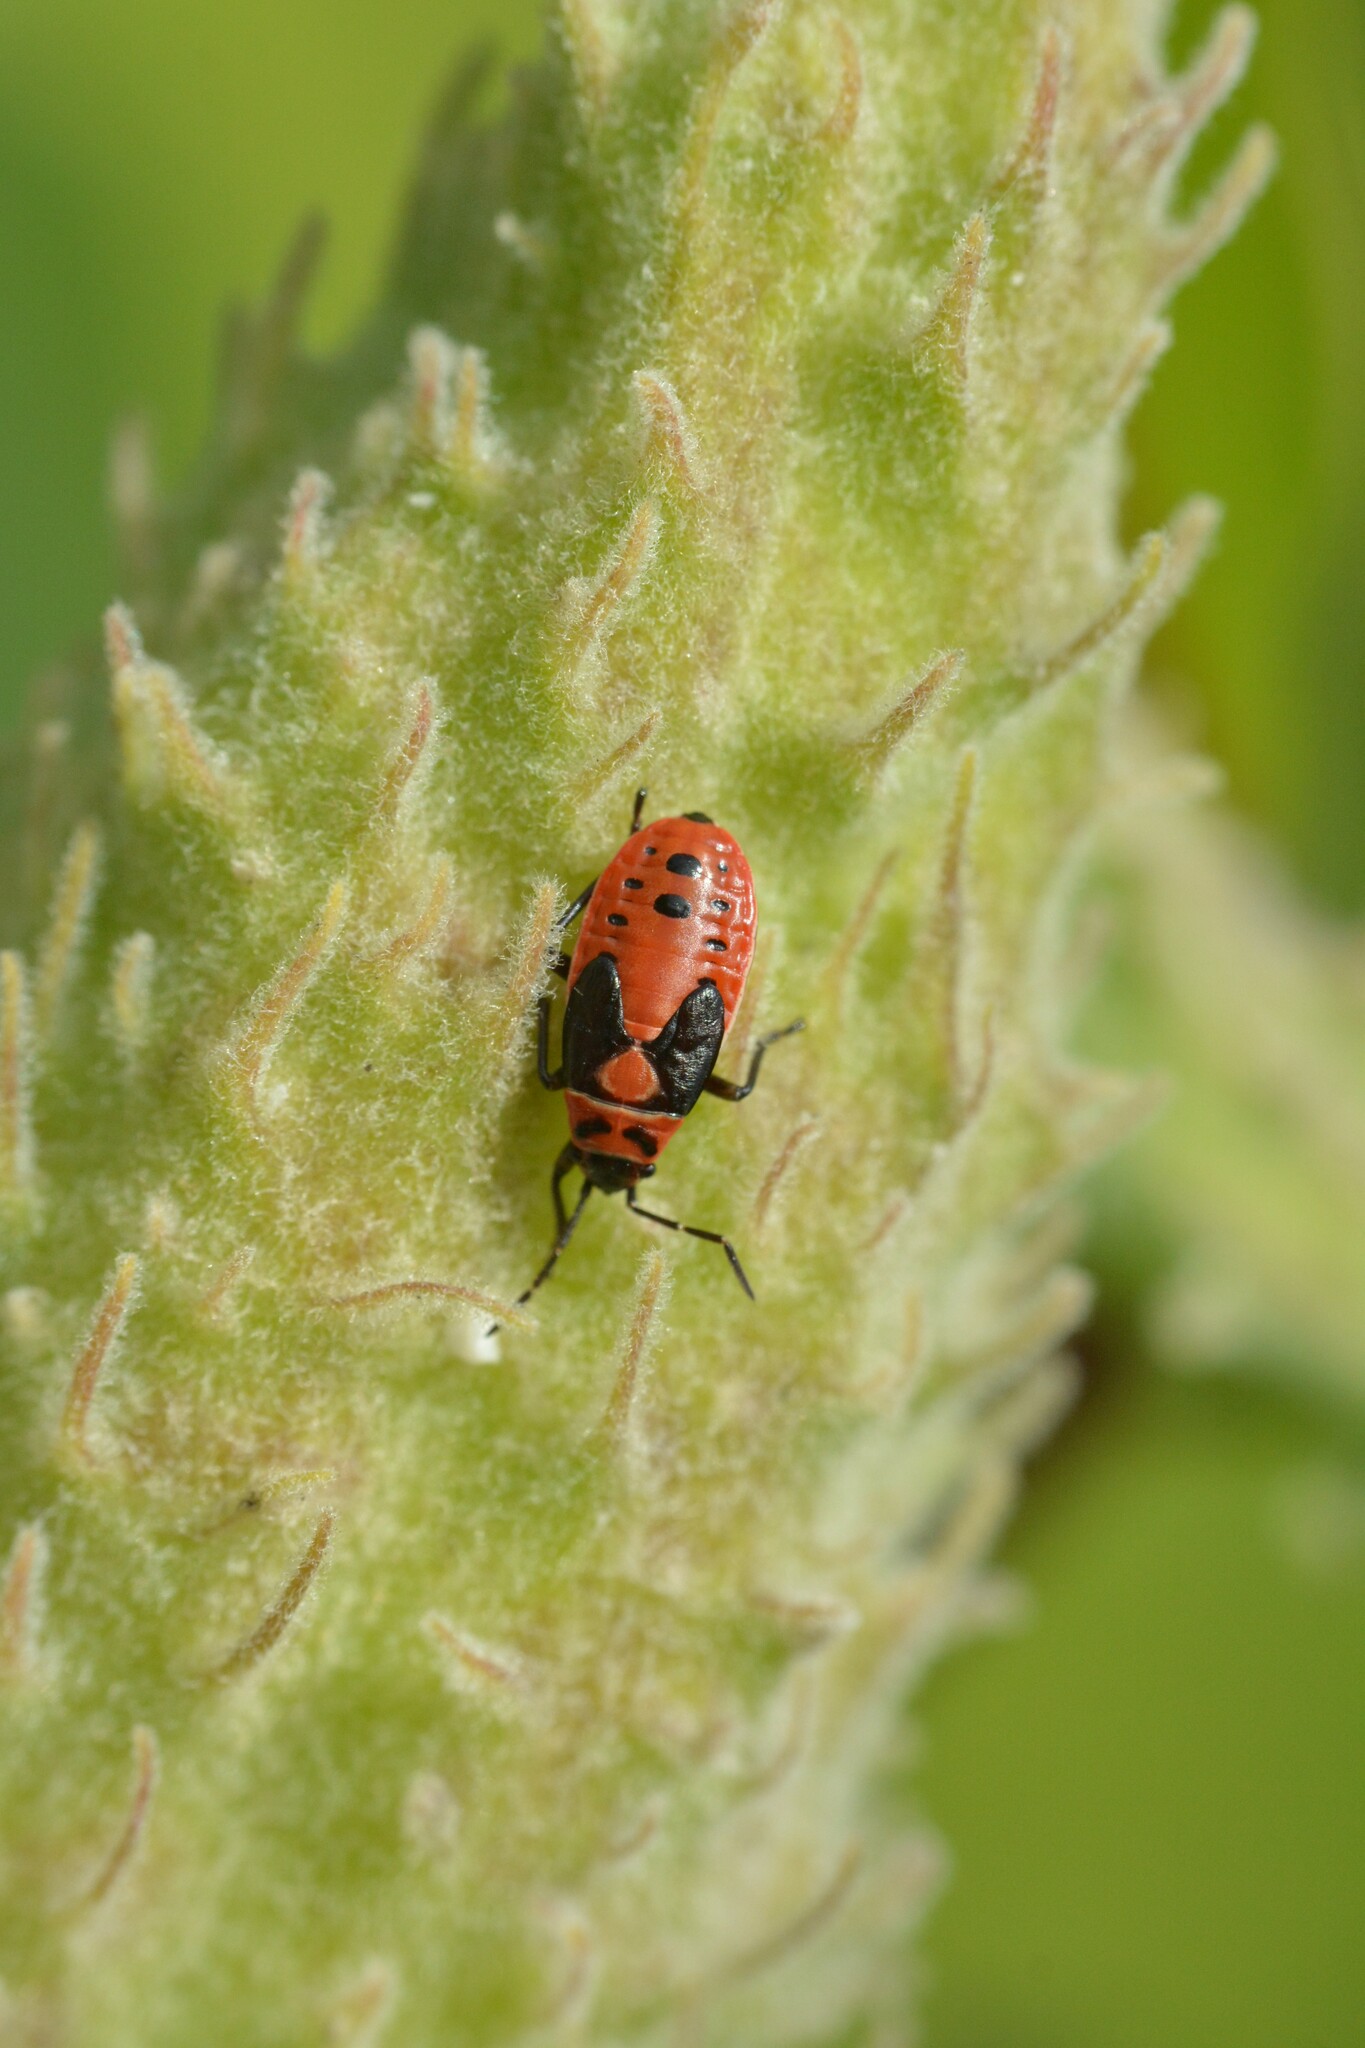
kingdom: Animalia
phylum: Arthropoda
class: Insecta
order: Hemiptera
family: Lygaeidae
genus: Lygaeus
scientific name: Lygaeus kalmii
